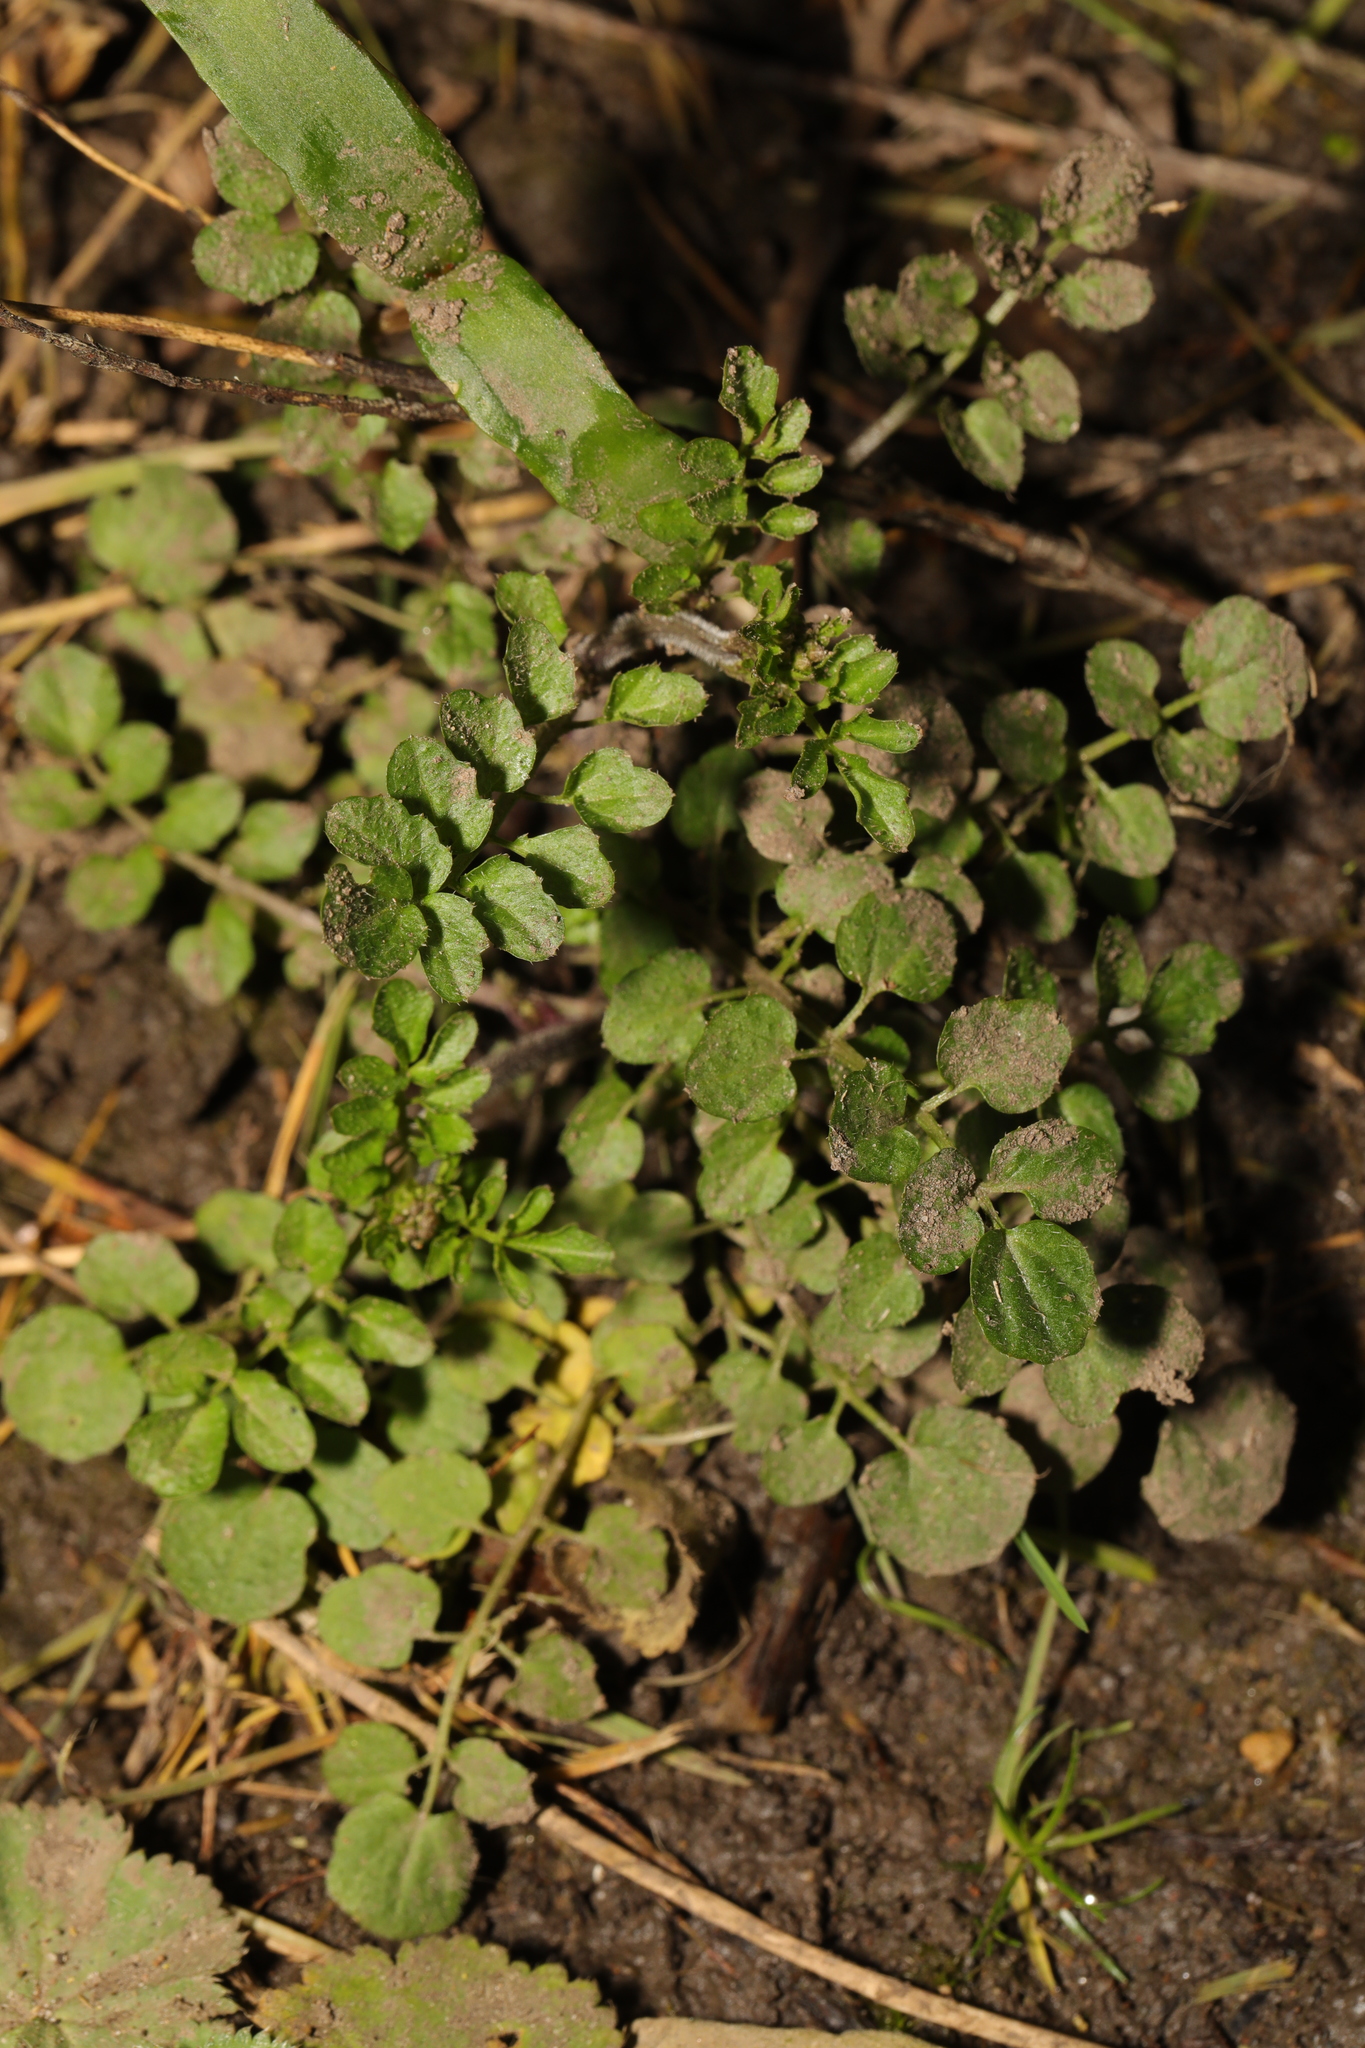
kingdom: Plantae
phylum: Tracheophyta
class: Magnoliopsida
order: Brassicales
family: Brassicaceae
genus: Cardamine
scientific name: Cardamine flexuosa
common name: Woodland bittercress
